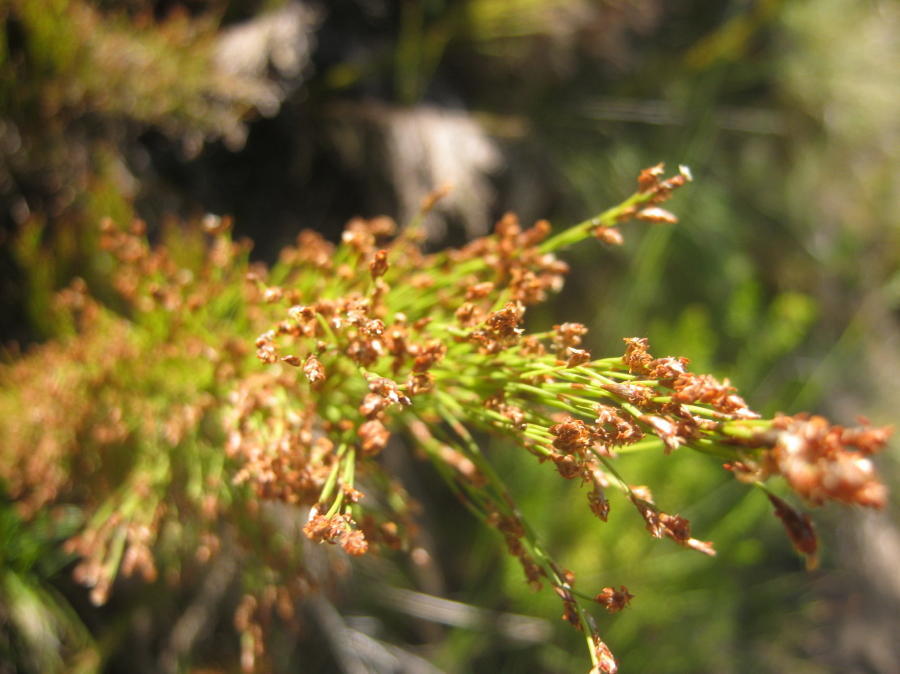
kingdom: Plantae
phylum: Tracheophyta
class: Liliopsida
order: Poales
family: Restionaceae
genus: Restio
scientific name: Restio leptoclados
